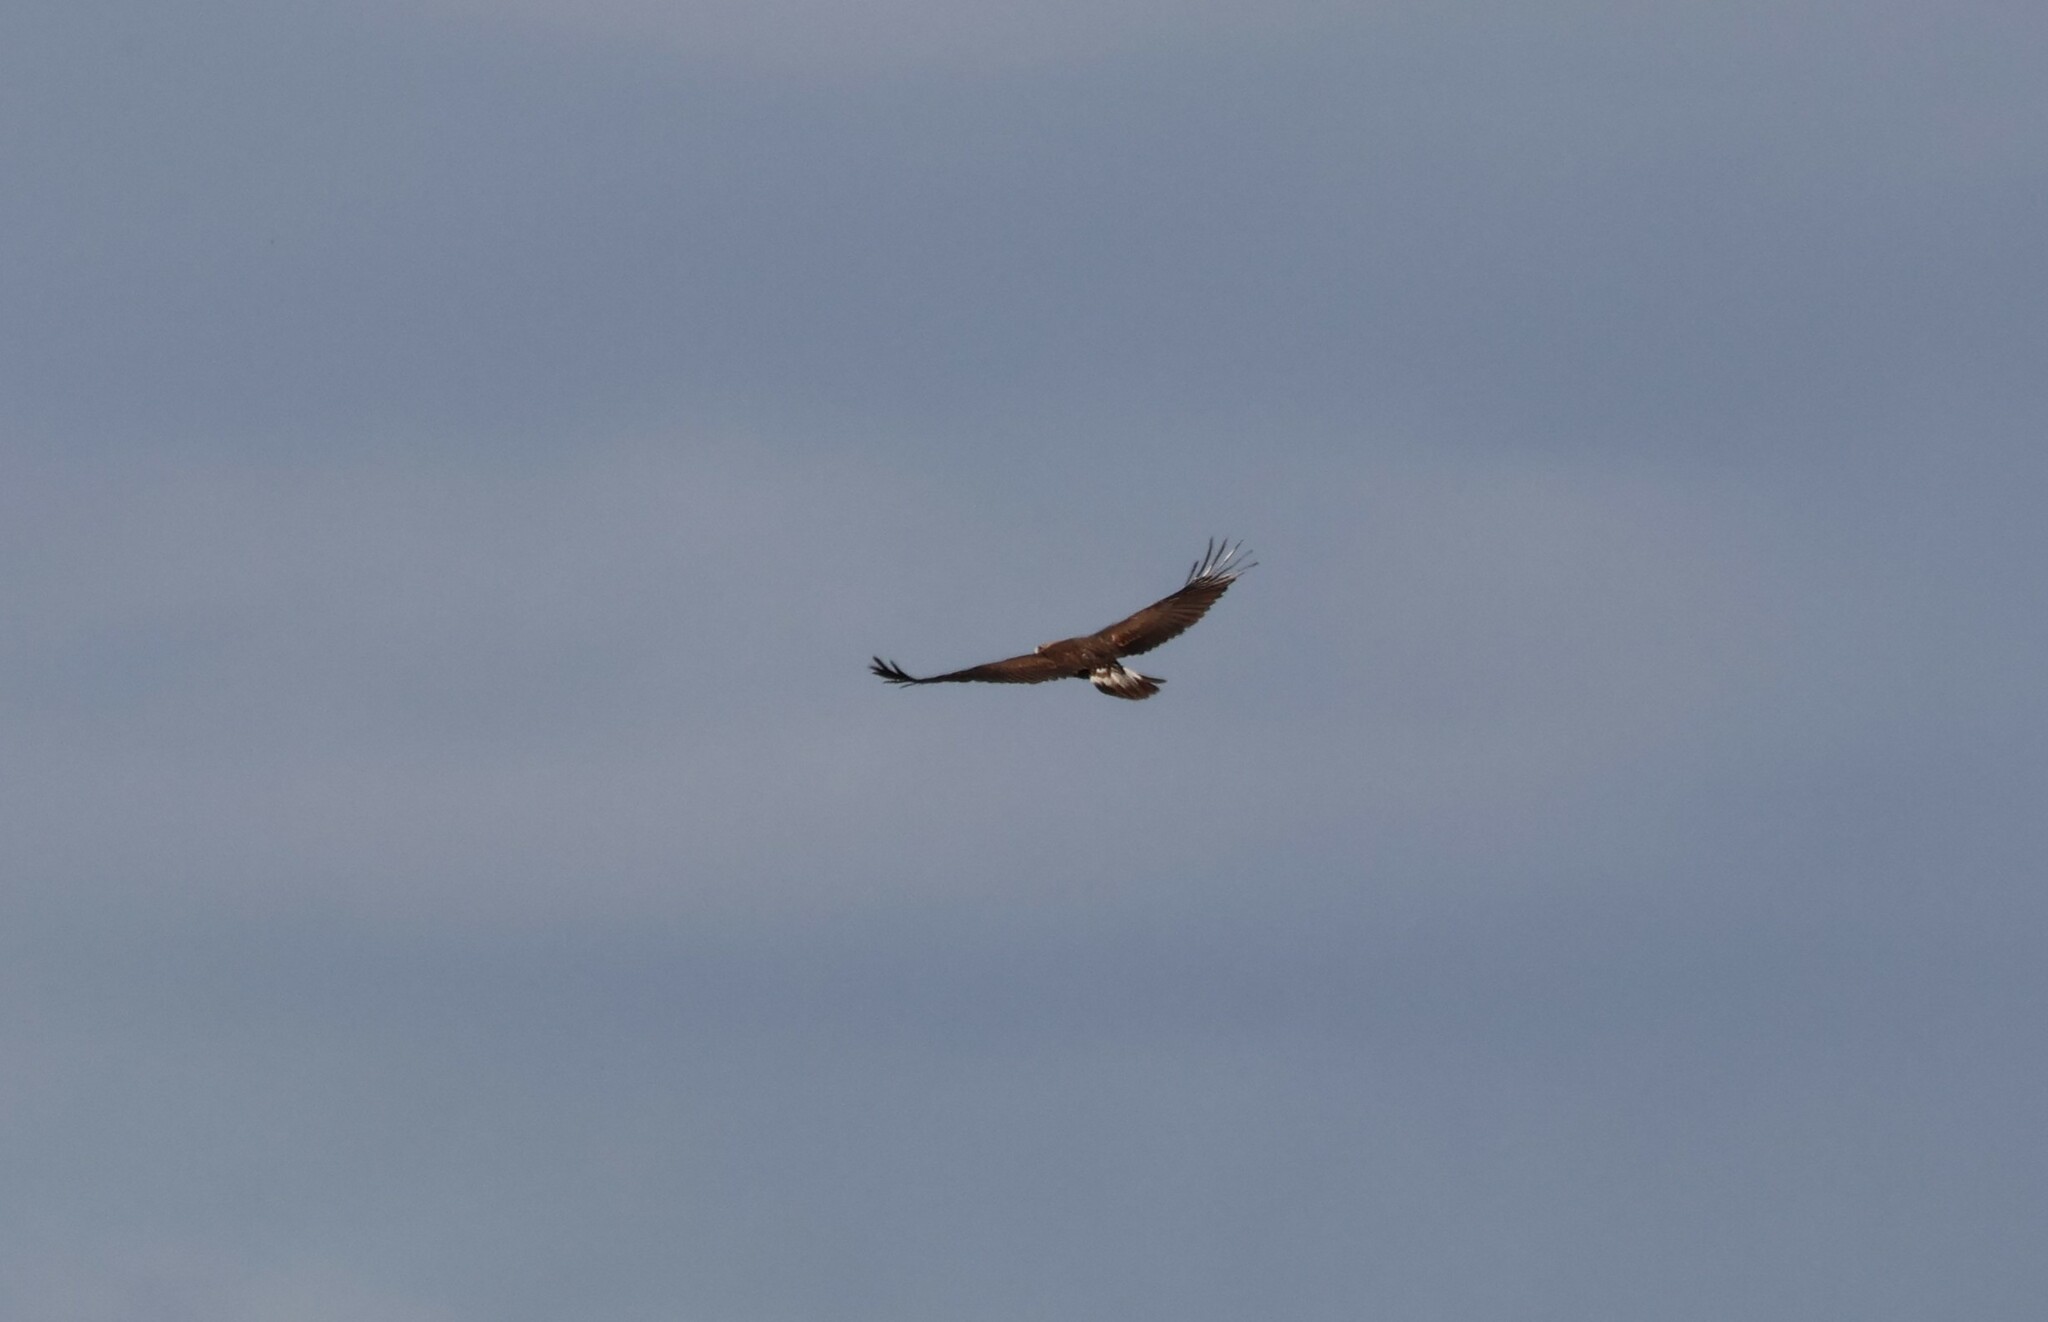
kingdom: Animalia
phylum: Chordata
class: Aves
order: Accipitriformes
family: Accipitridae
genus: Aquila
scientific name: Aquila chrysaetos
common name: Golden eagle
